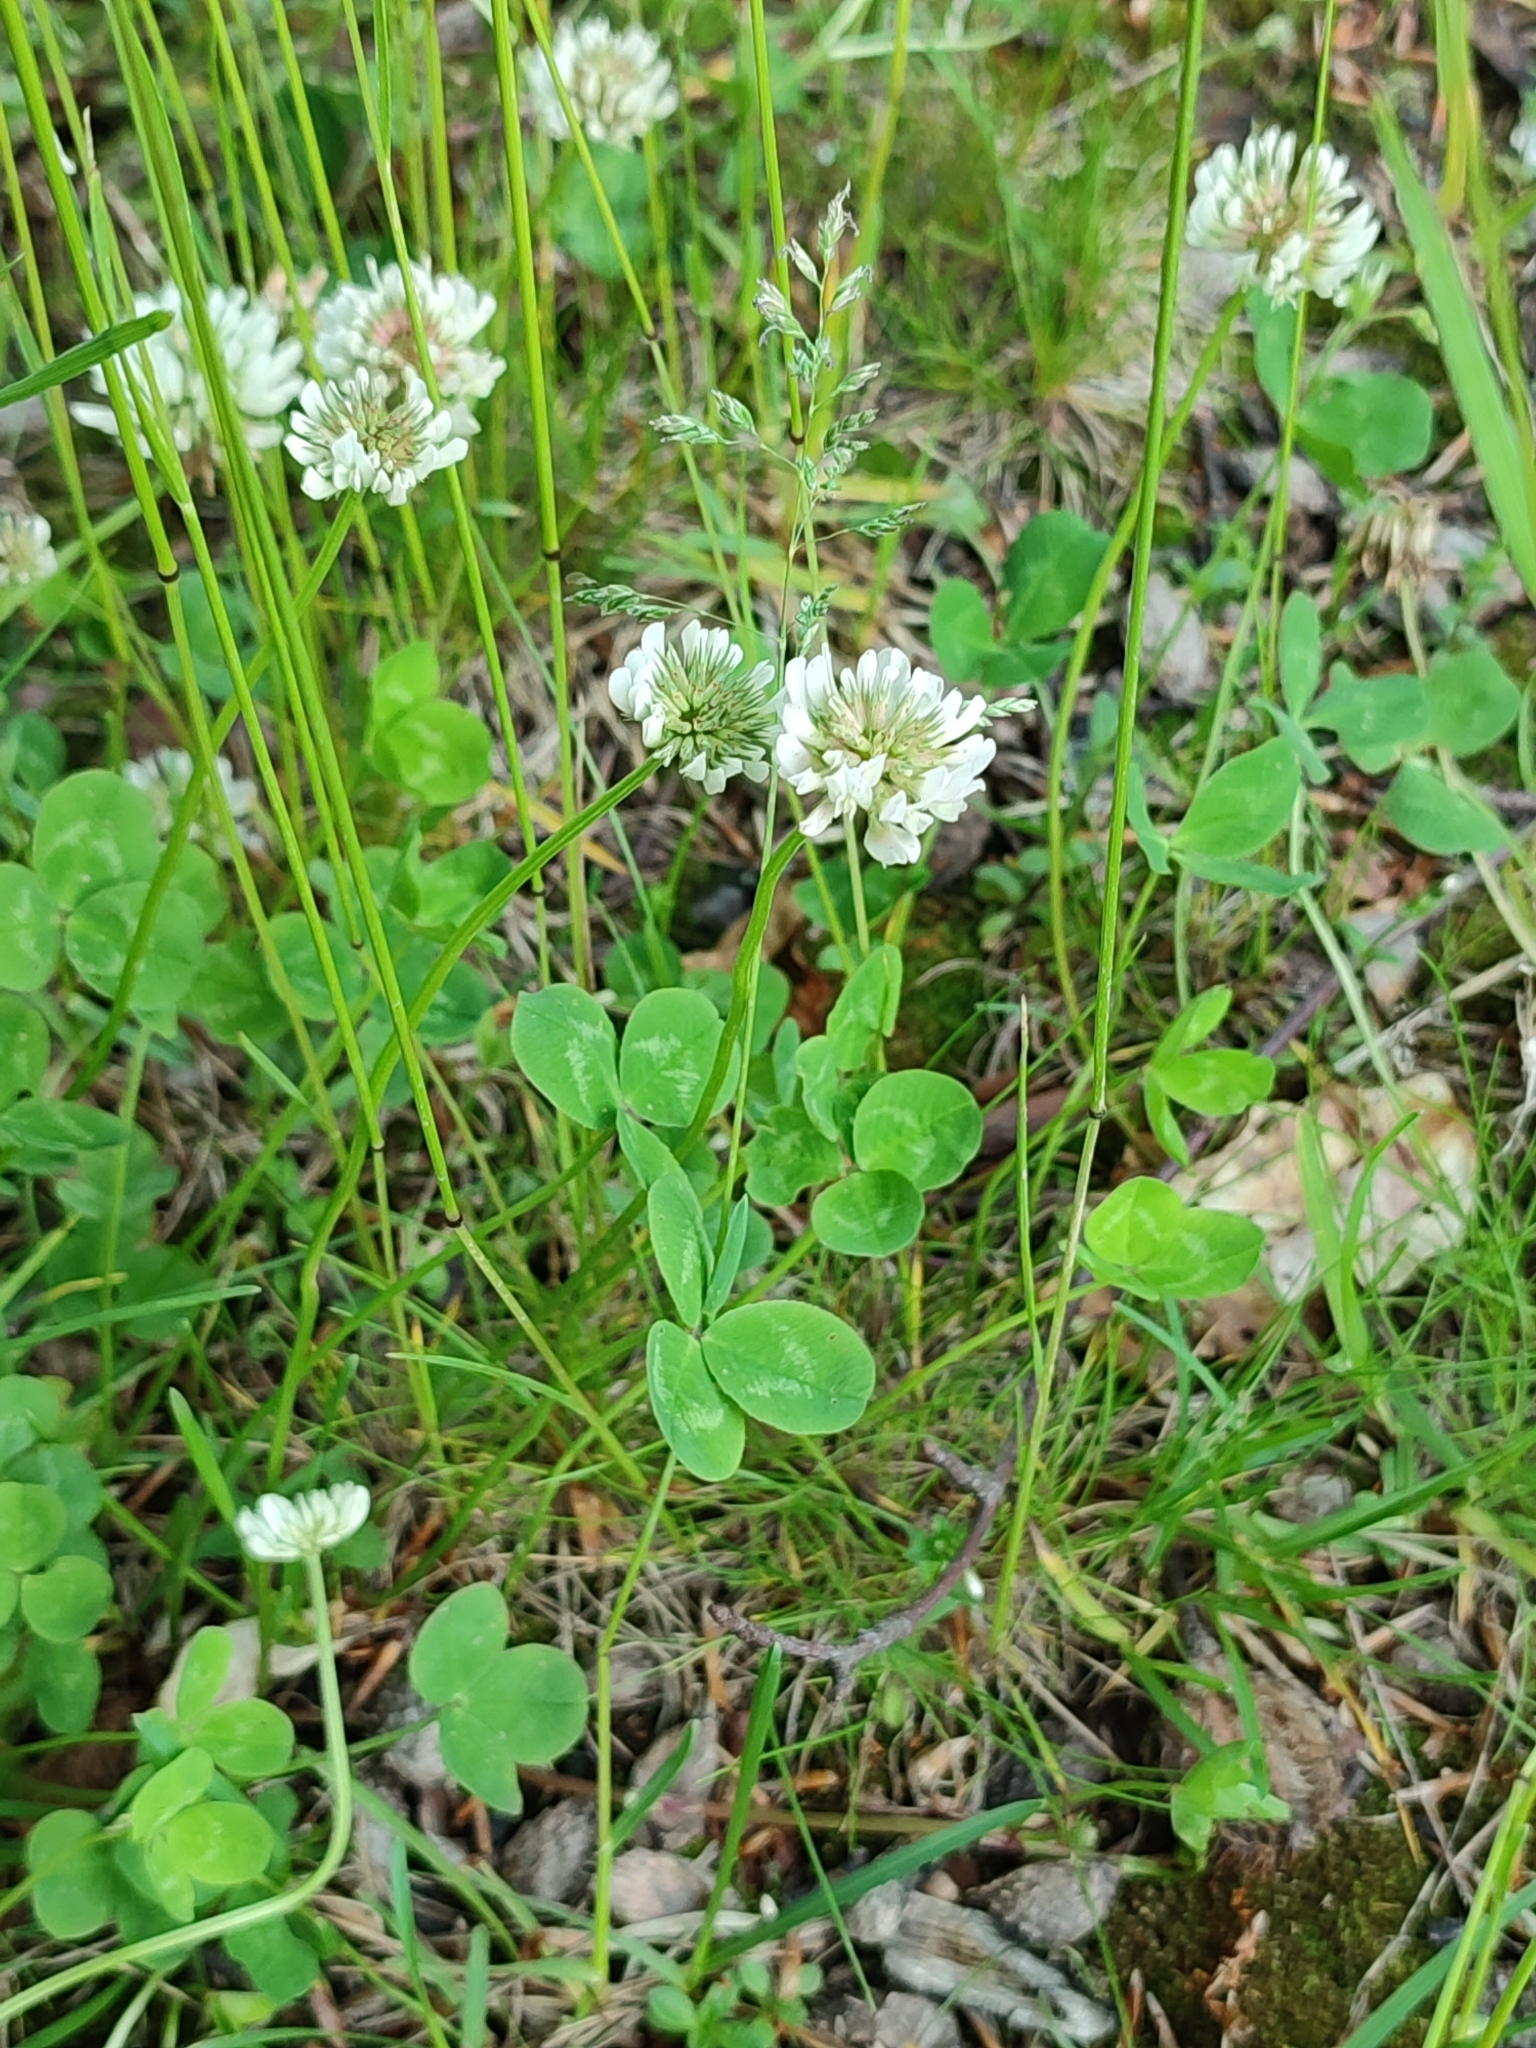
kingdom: Plantae
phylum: Tracheophyta
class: Magnoliopsida
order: Fabales
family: Fabaceae
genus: Trifolium
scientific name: Trifolium repens
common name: White clover
